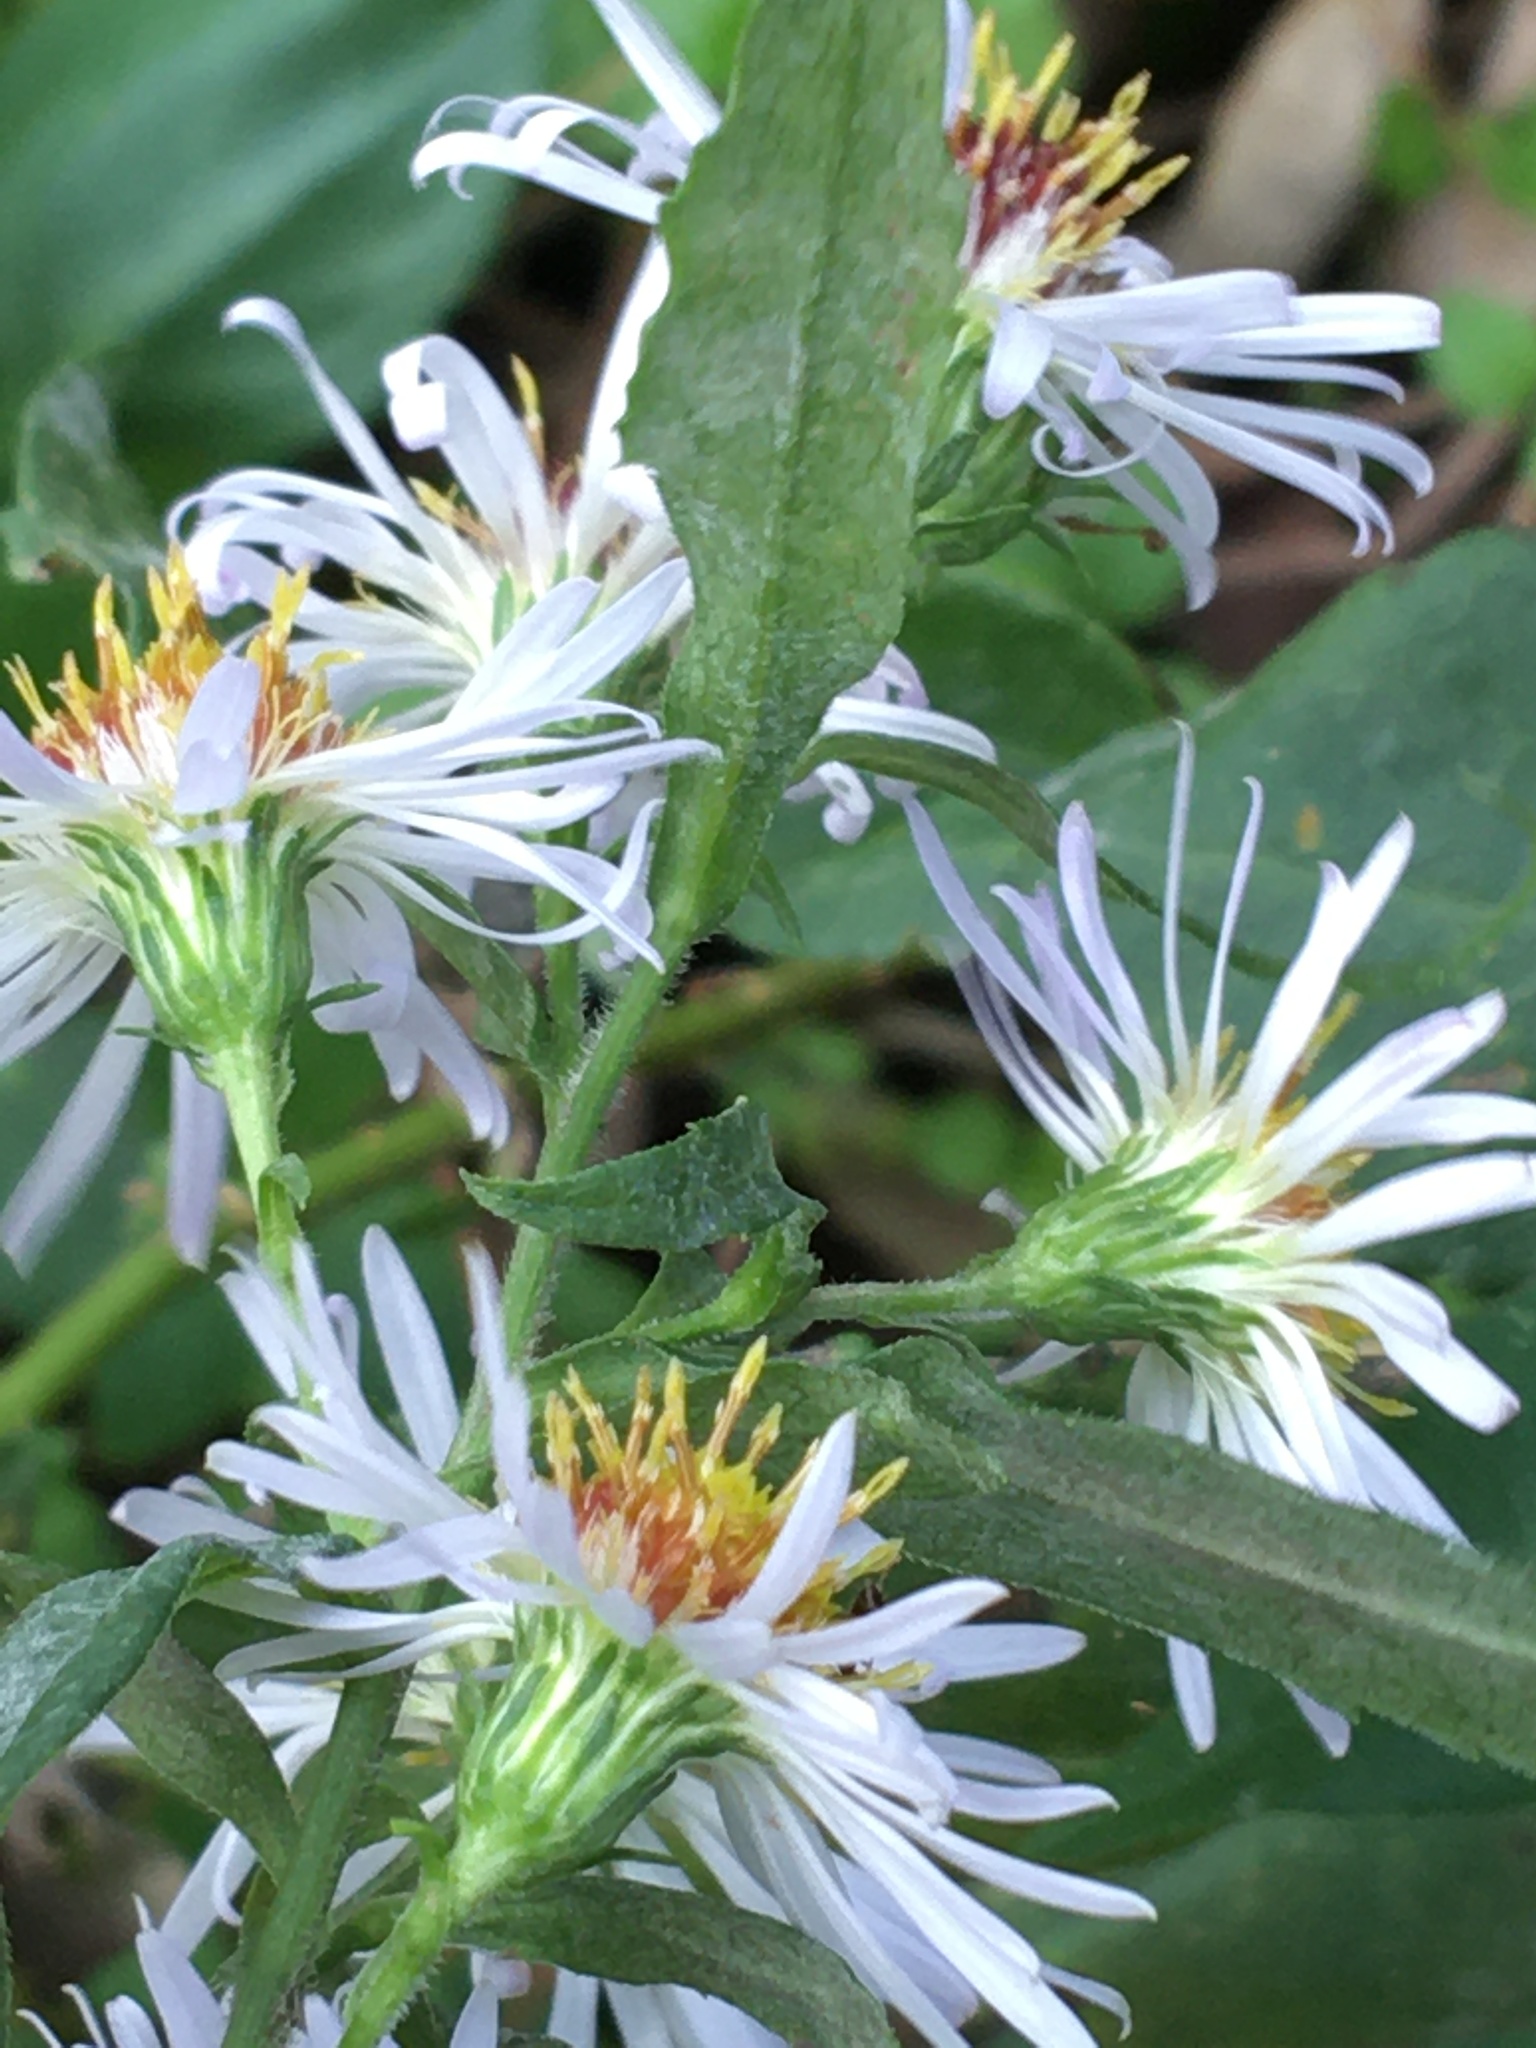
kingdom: Plantae
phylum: Tracheophyta
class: Magnoliopsida
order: Asterales
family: Asteraceae
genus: Symphyotrichum
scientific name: Symphyotrichum lanceolatum
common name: Panicled aster
